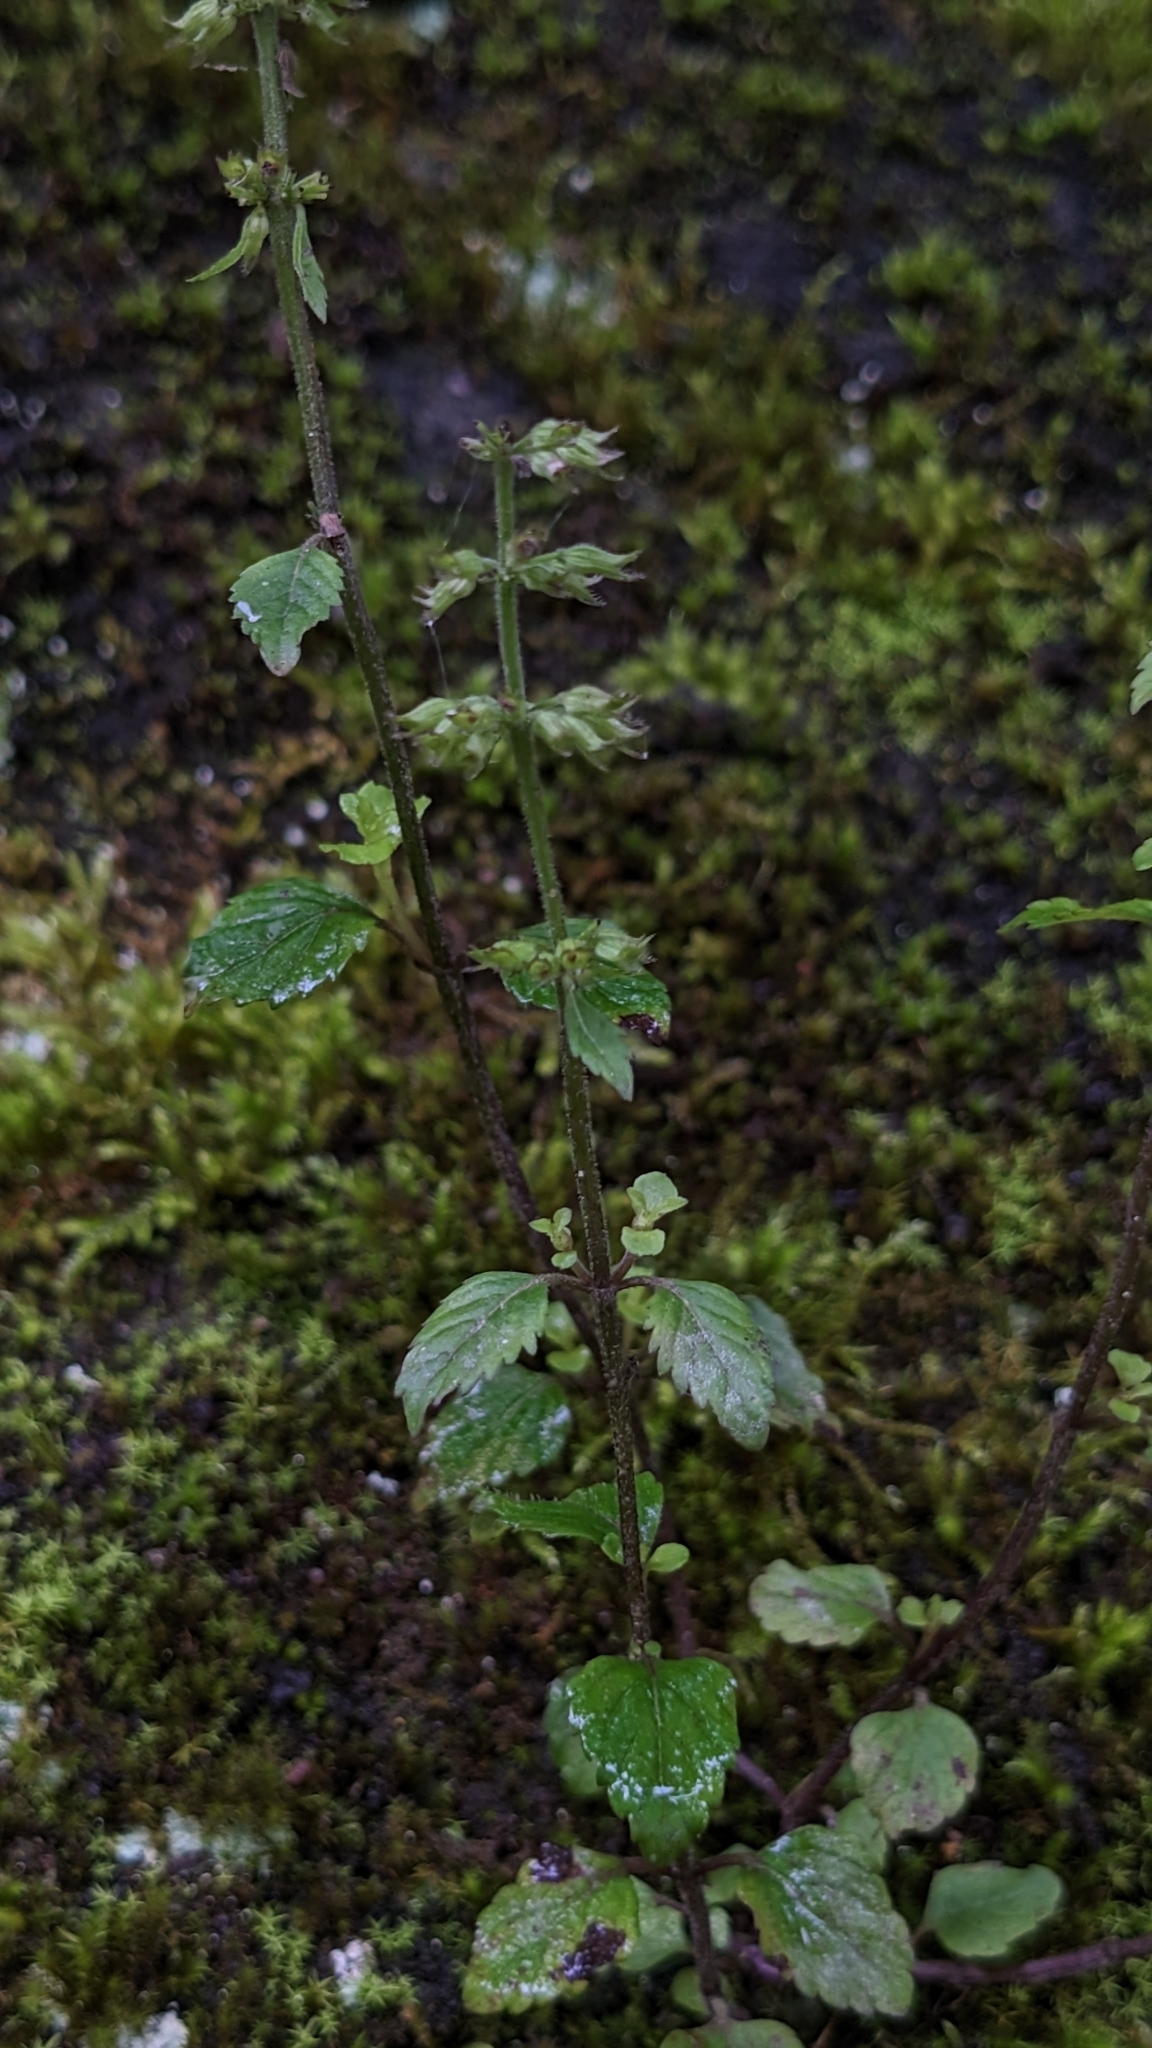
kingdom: Plantae
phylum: Tracheophyta
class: Magnoliopsida
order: Lamiales
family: Lamiaceae
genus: Clinopodium
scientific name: Clinopodium gracile
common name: Slender wild basil
